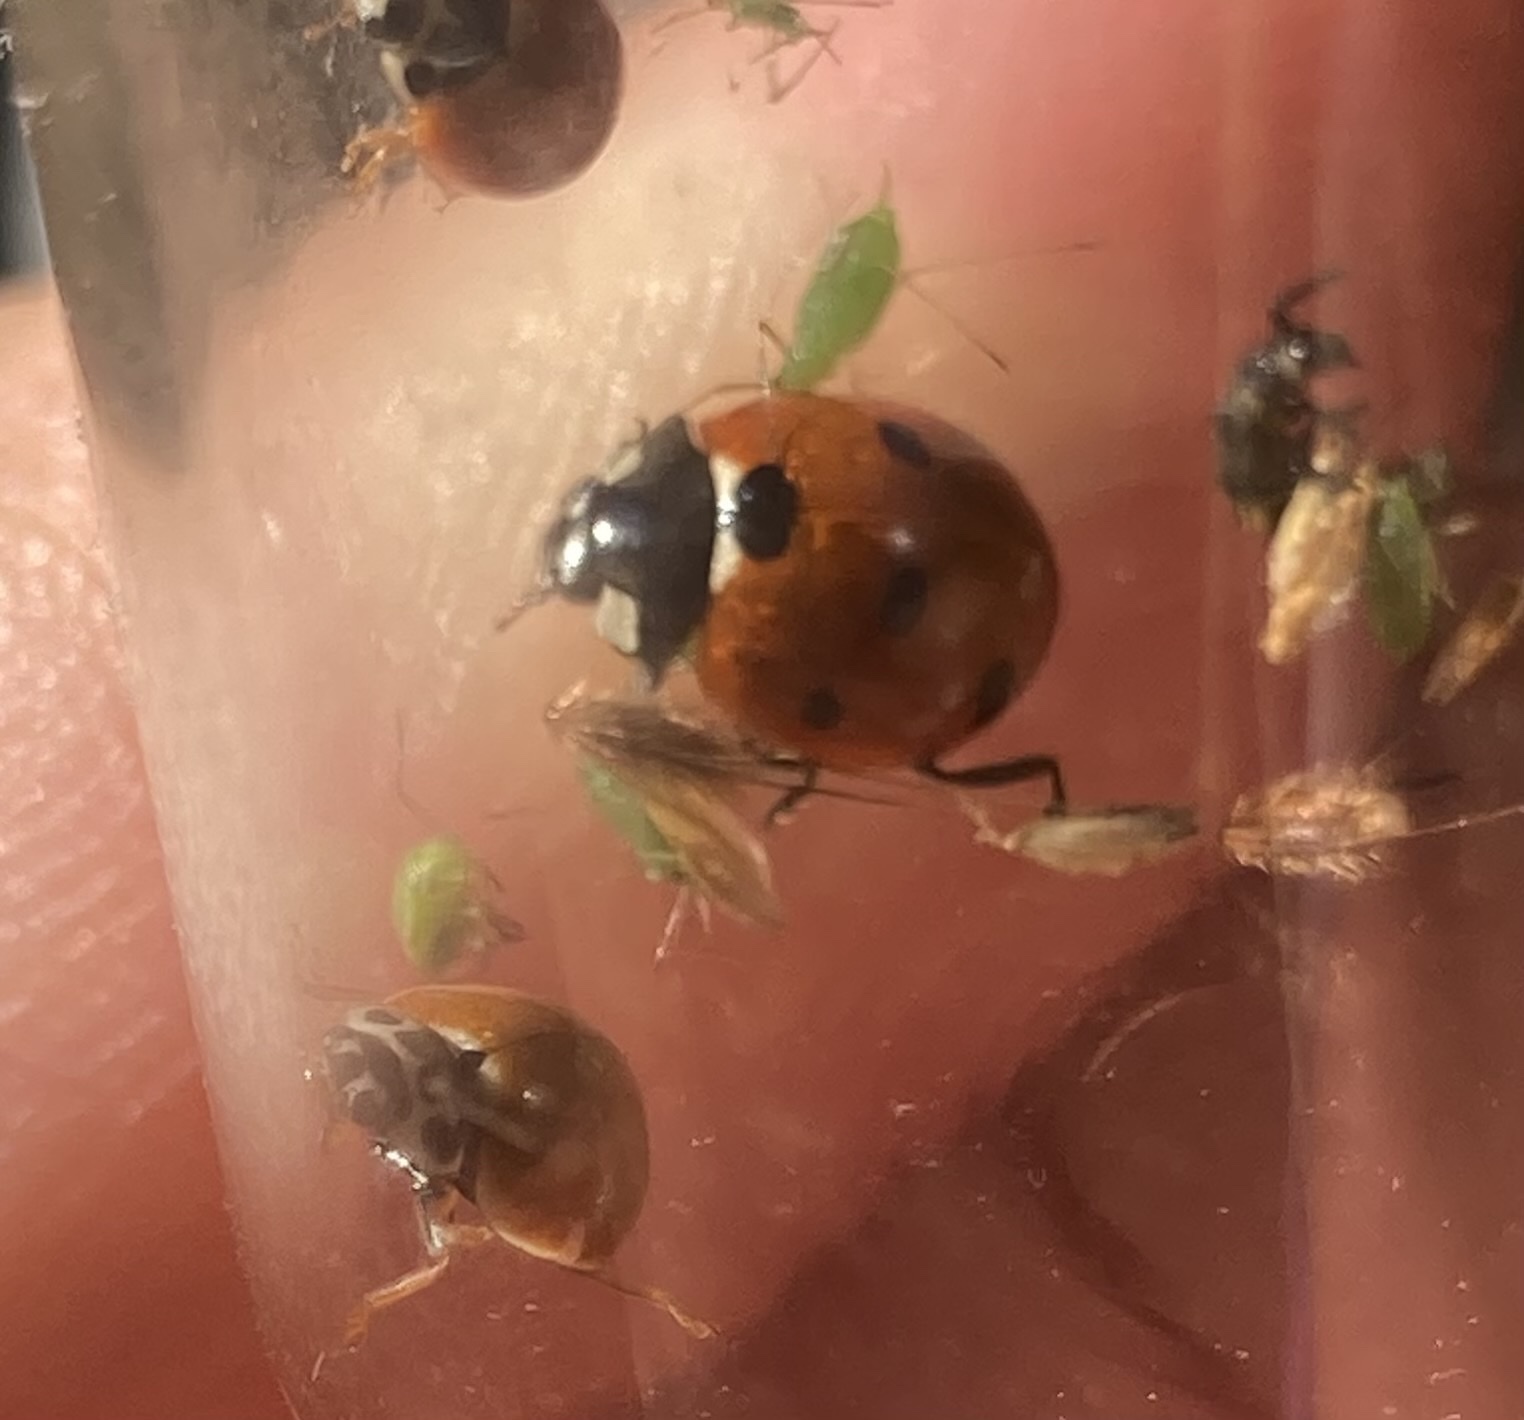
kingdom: Animalia
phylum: Arthropoda
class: Insecta
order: Coleoptera
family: Coccinellidae
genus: Coccinella
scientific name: Coccinella septempunctata
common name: Sevenspotted lady beetle
